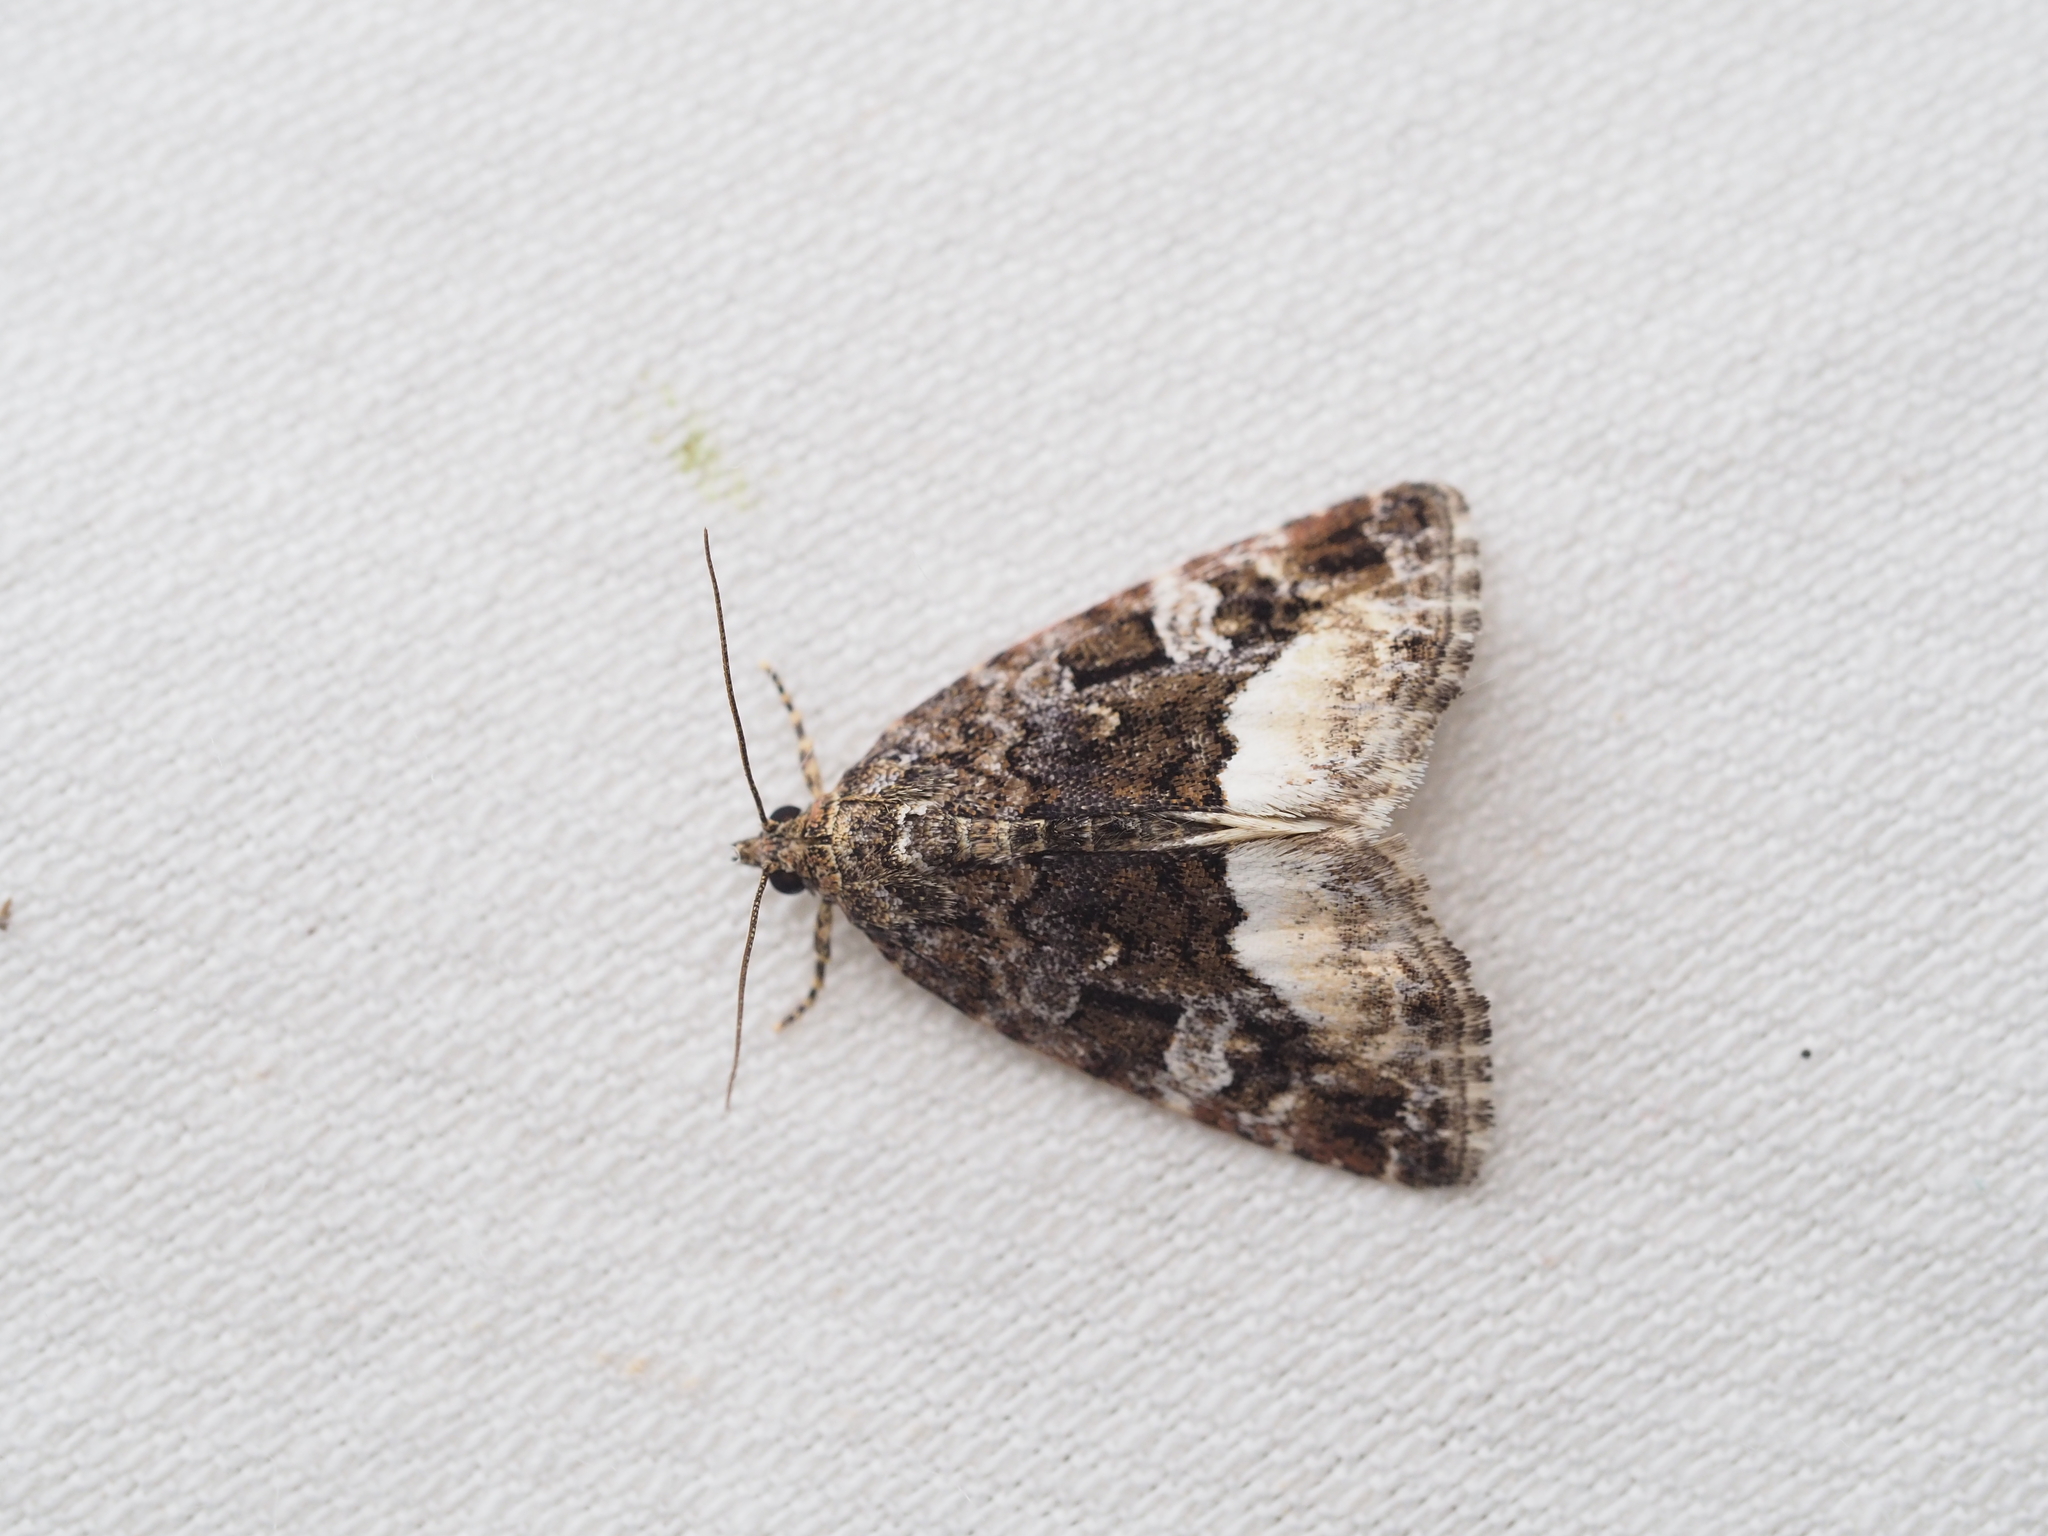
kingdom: Animalia
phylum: Arthropoda
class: Insecta
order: Lepidoptera
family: Noctuidae
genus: Deltote
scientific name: Deltote pygarga
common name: Marbled white spot
